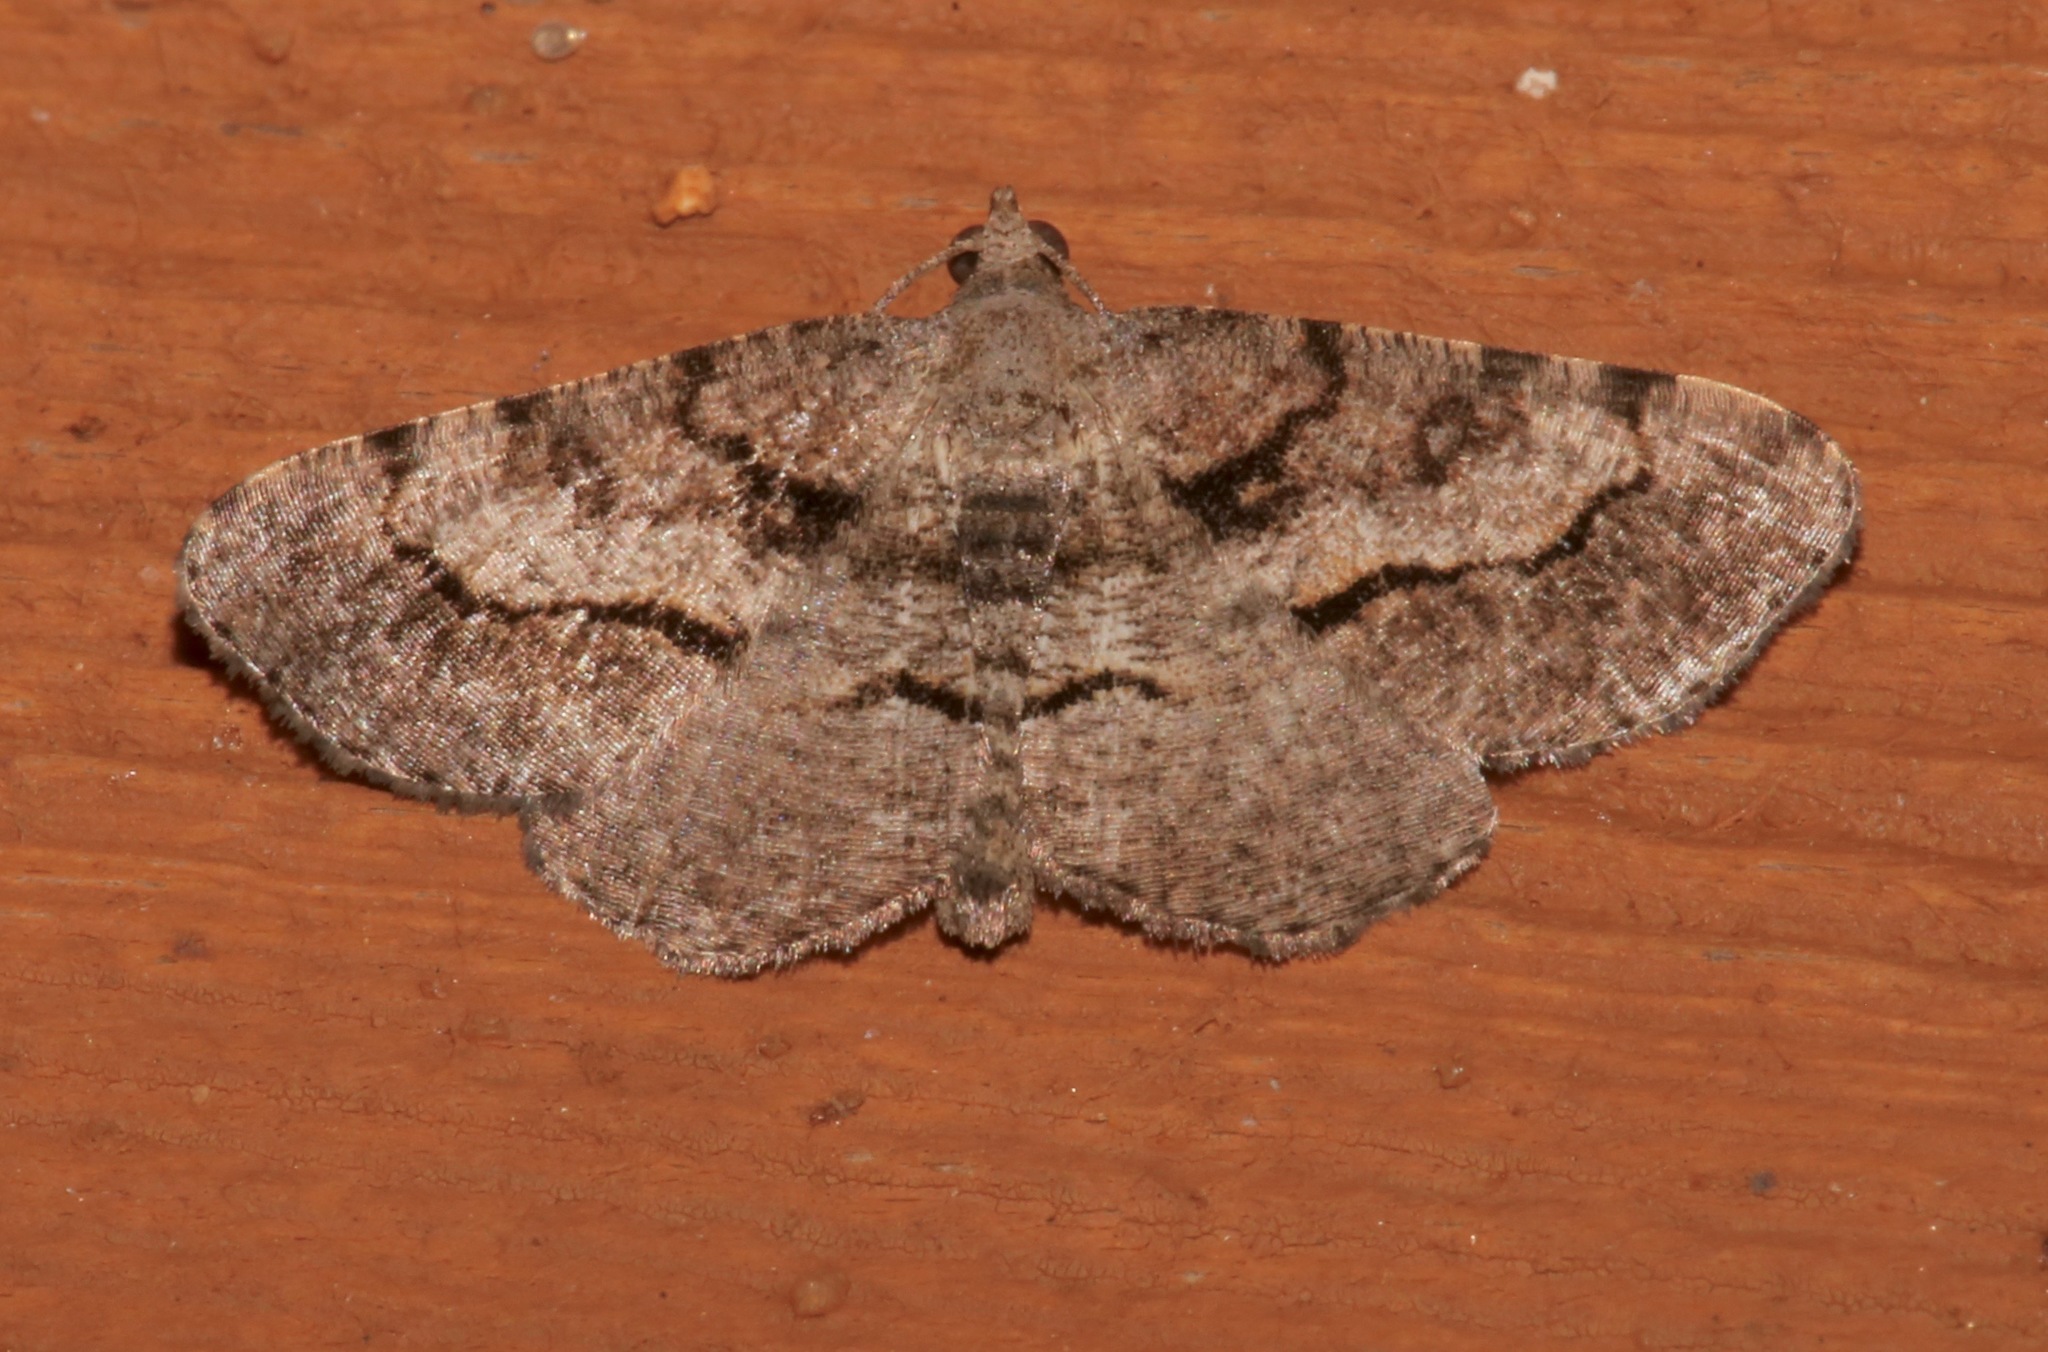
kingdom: Animalia
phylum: Arthropoda
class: Insecta
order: Lepidoptera
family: Geometridae
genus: Digrammia
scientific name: Digrammia gnophosaria
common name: Hollow-spotted angle
